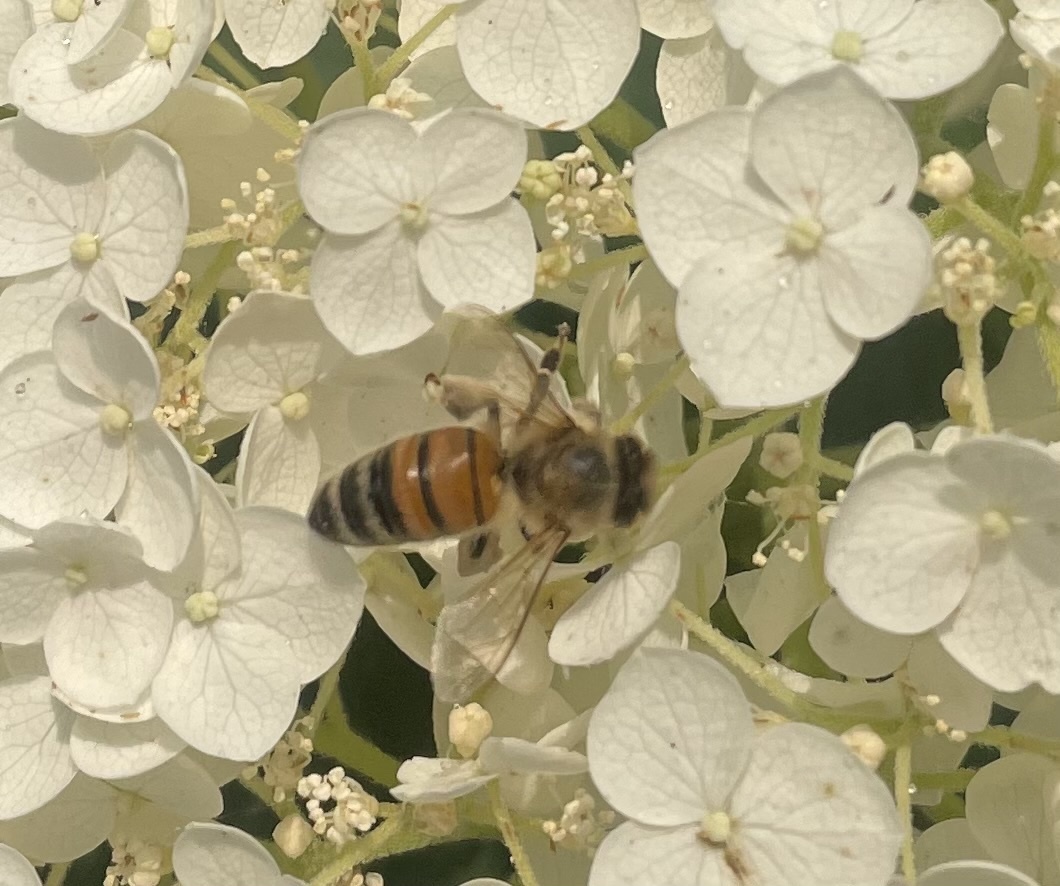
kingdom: Animalia
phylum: Arthropoda
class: Insecta
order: Hymenoptera
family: Apidae
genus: Apis
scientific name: Apis mellifera
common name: Honey bee
